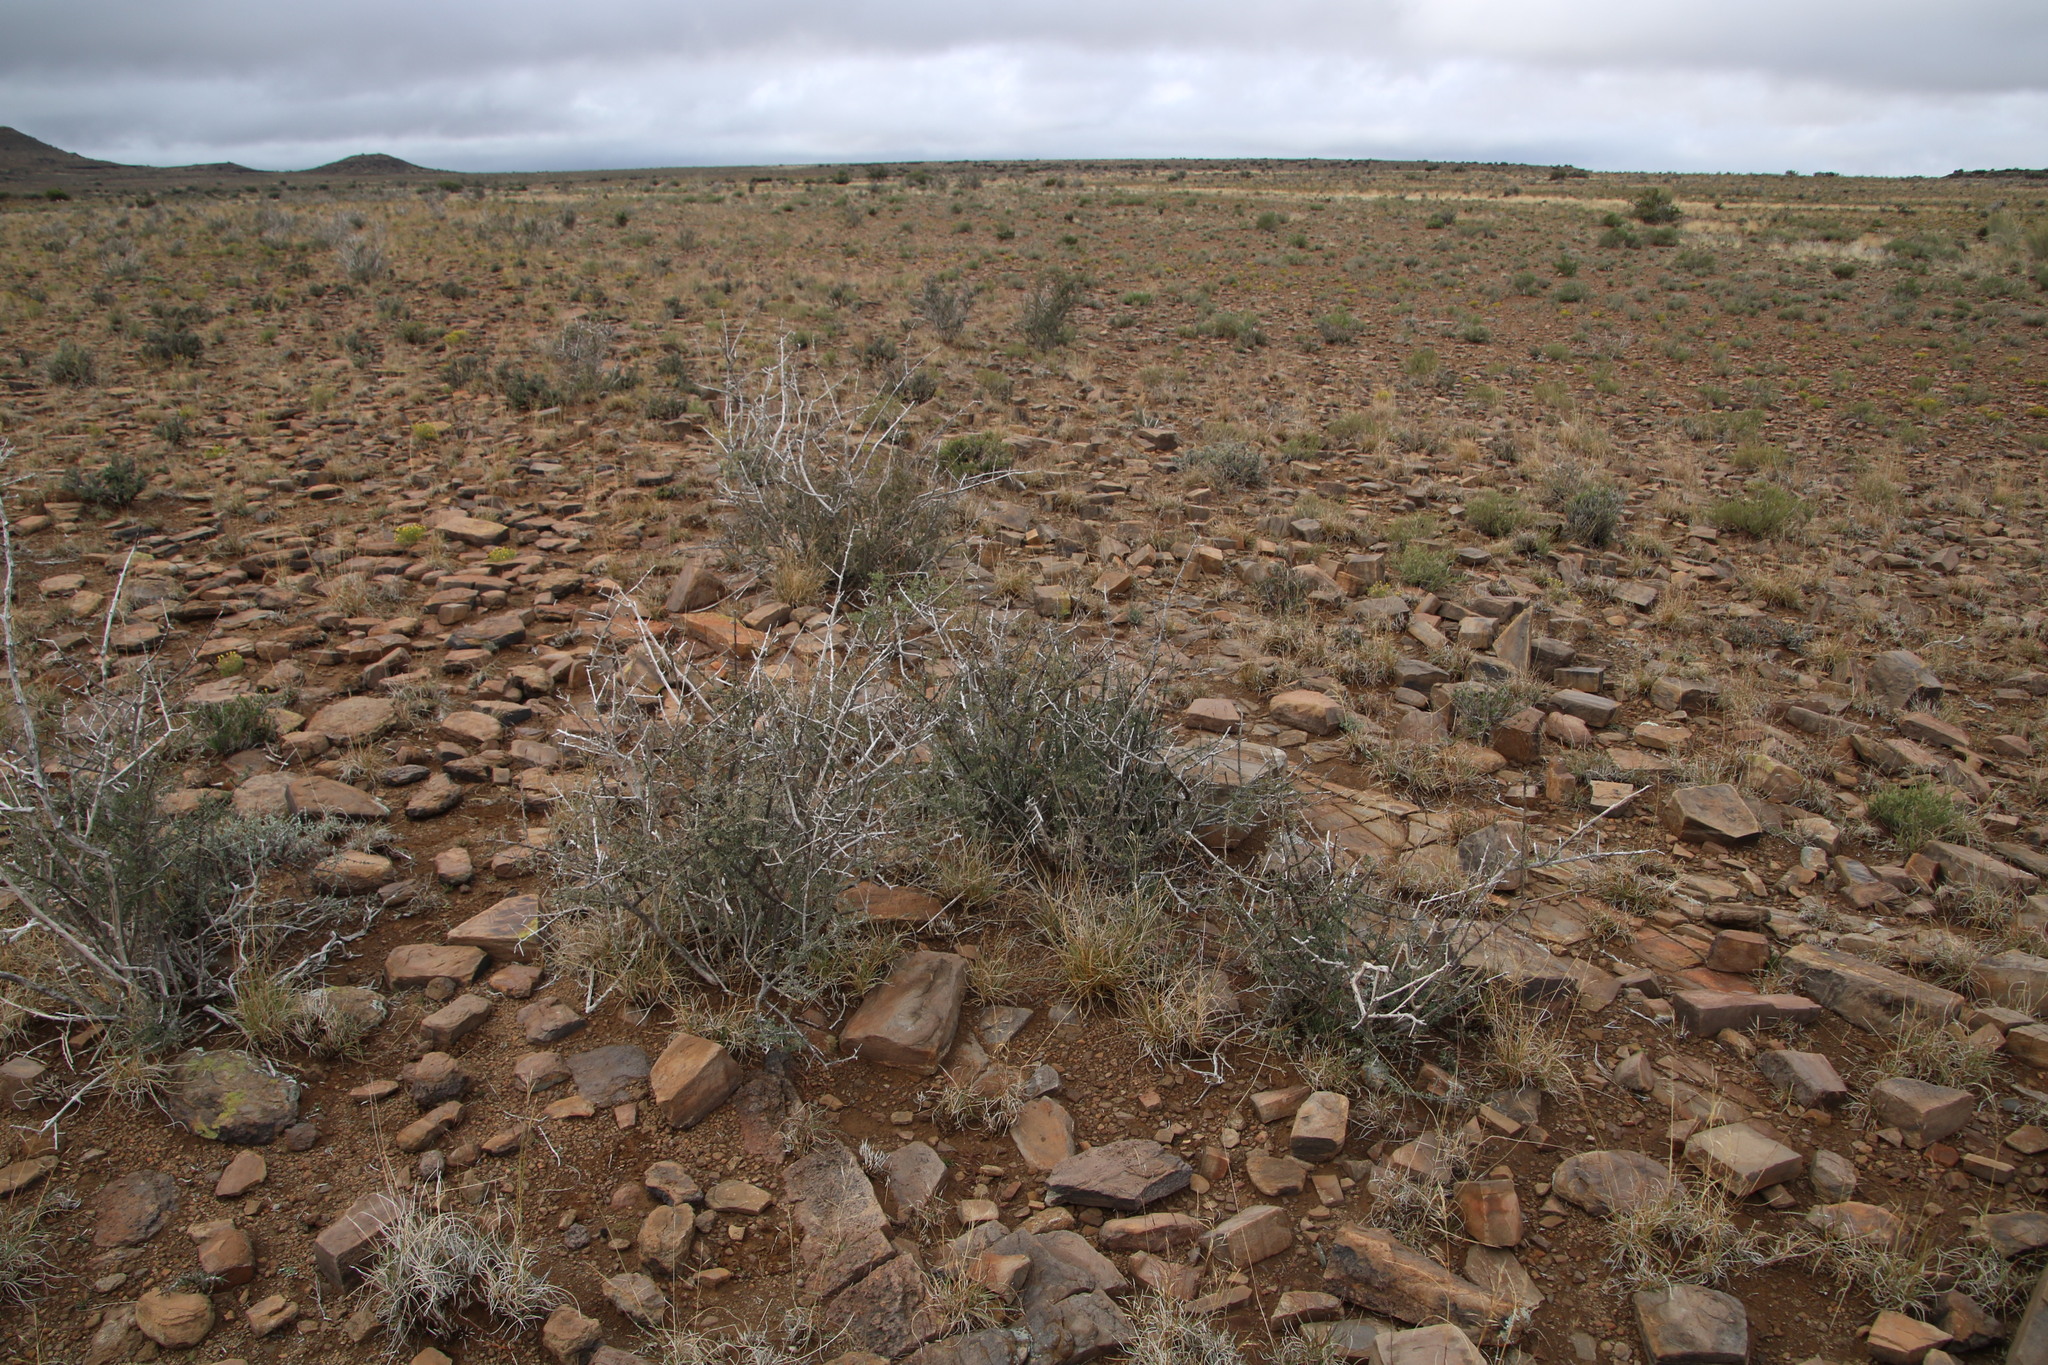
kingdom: Plantae
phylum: Tracheophyta
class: Magnoliopsida
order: Lamiales
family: Bignoniaceae
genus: Rhigozum
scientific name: Rhigozum obovatum
